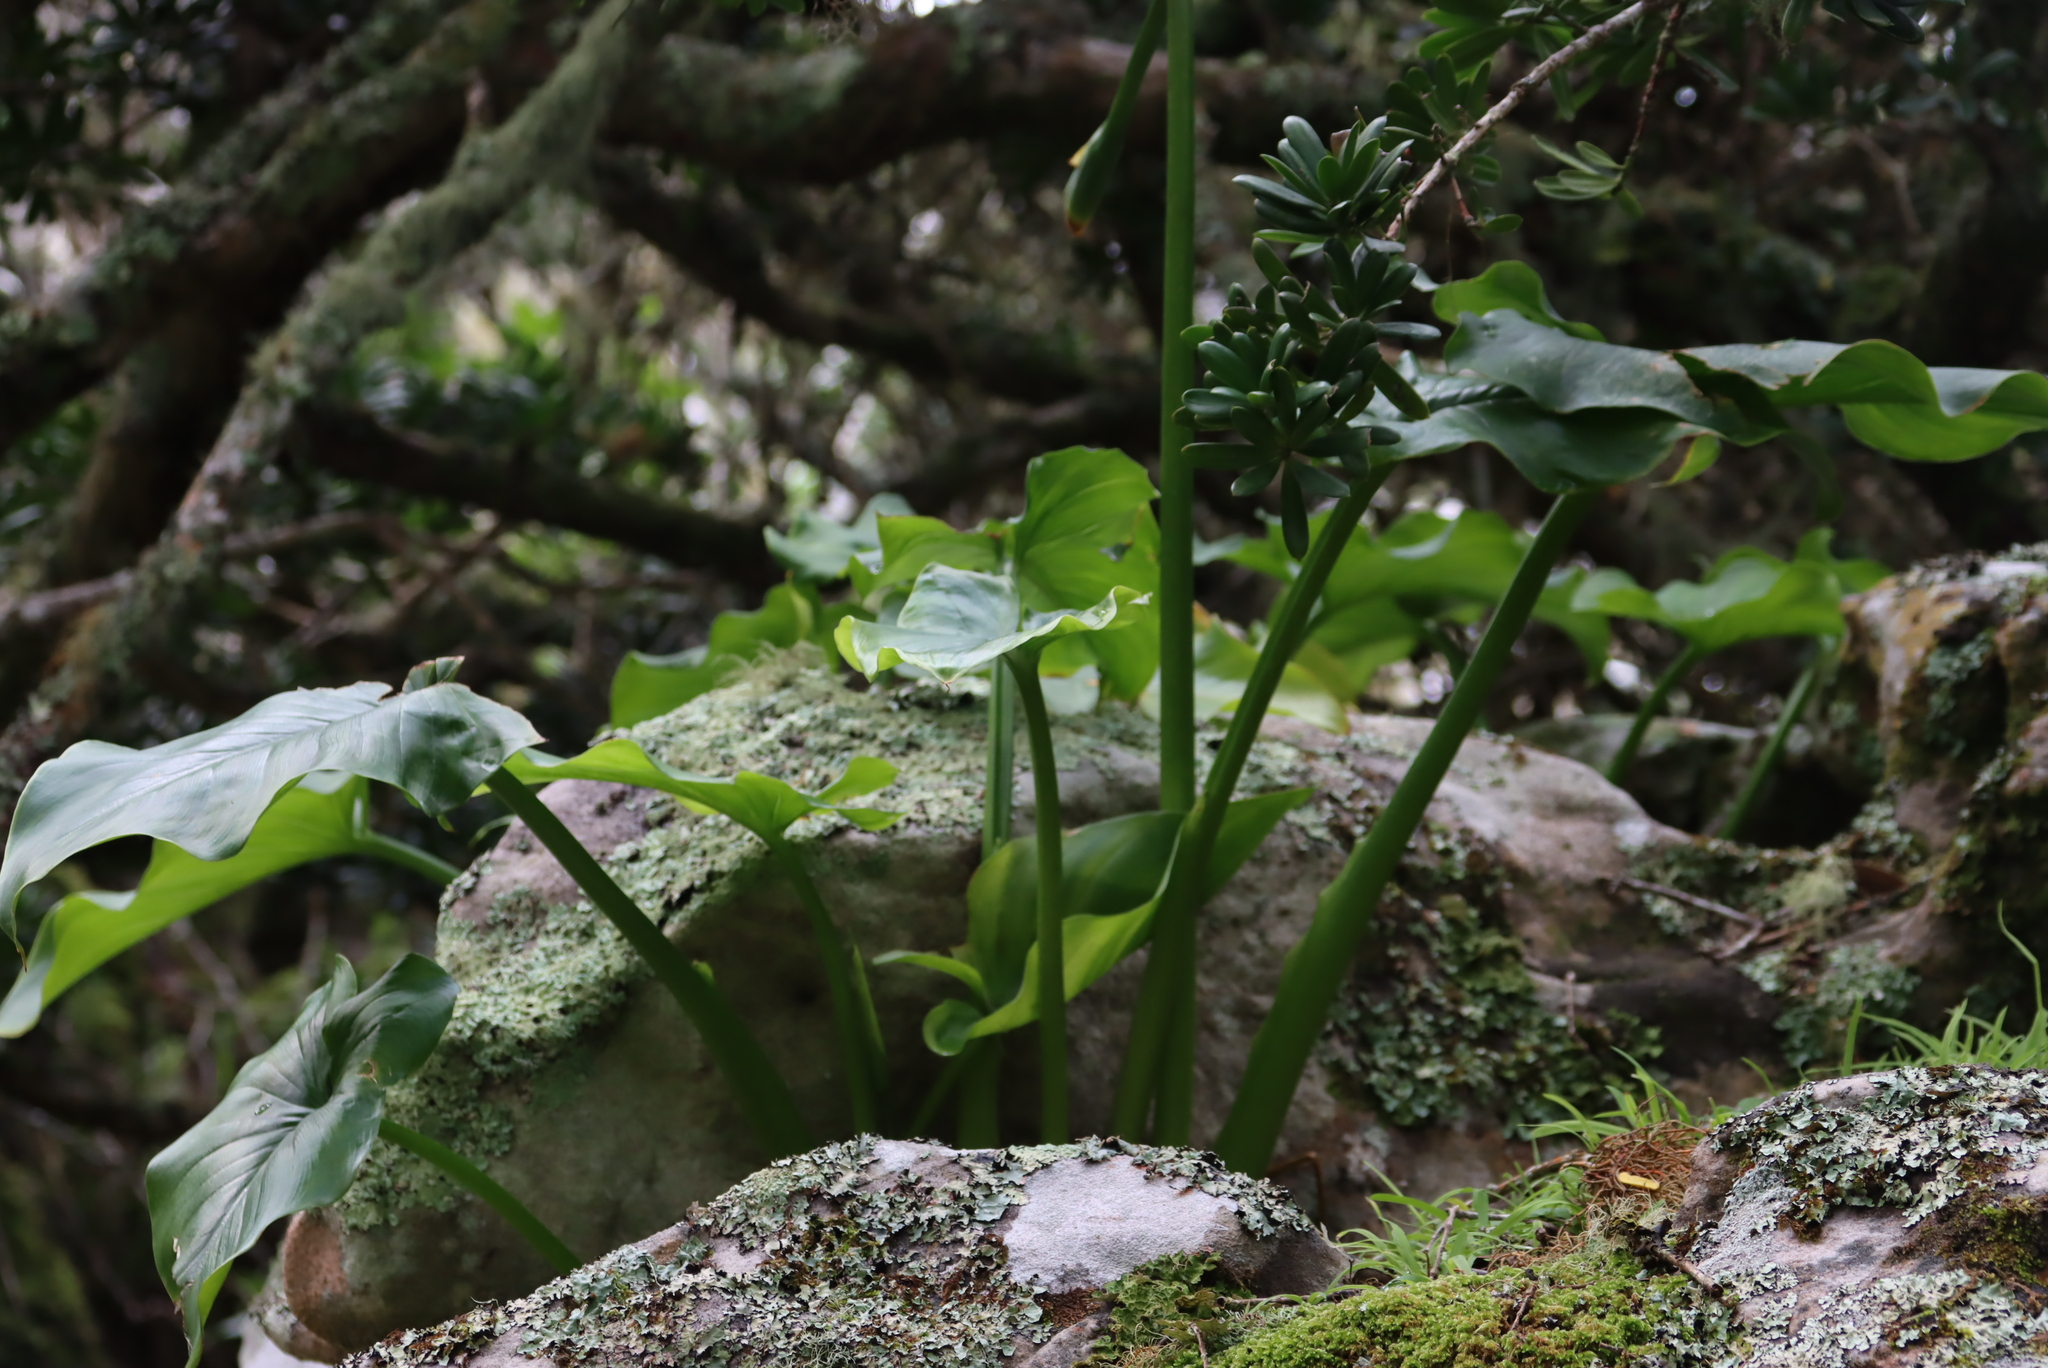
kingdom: Plantae
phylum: Tracheophyta
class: Liliopsida
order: Alismatales
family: Araceae
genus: Zantedeschia
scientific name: Zantedeschia aethiopica
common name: Altar-lily
